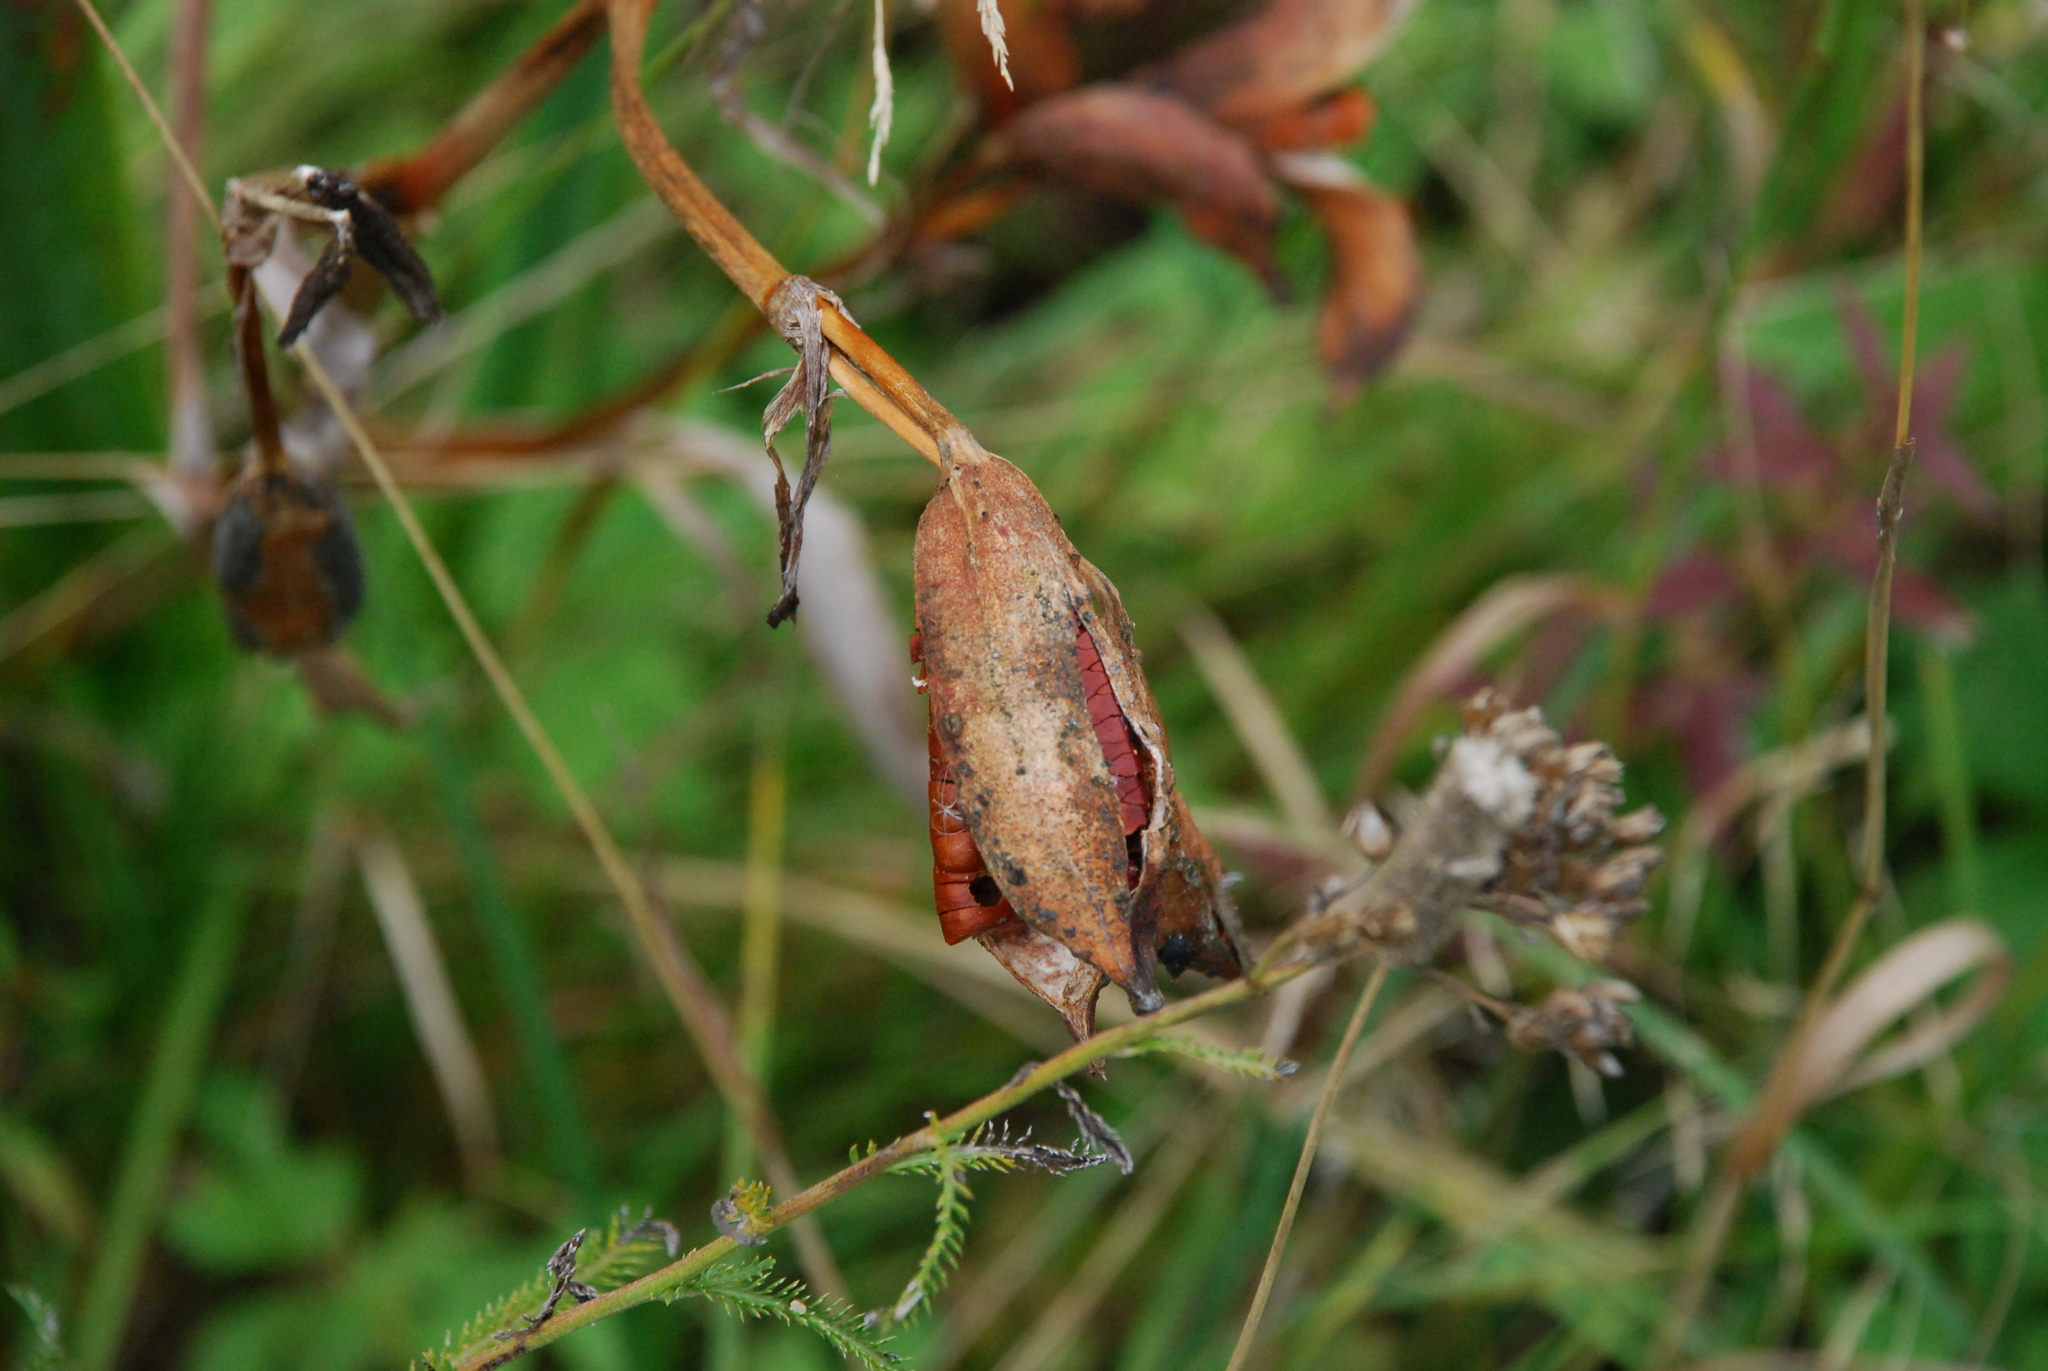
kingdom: Plantae
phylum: Tracheophyta
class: Liliopsida
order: Asparagales
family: Iridaceae
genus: Iris
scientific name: Iris pseudacorus
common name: Yellow flag
